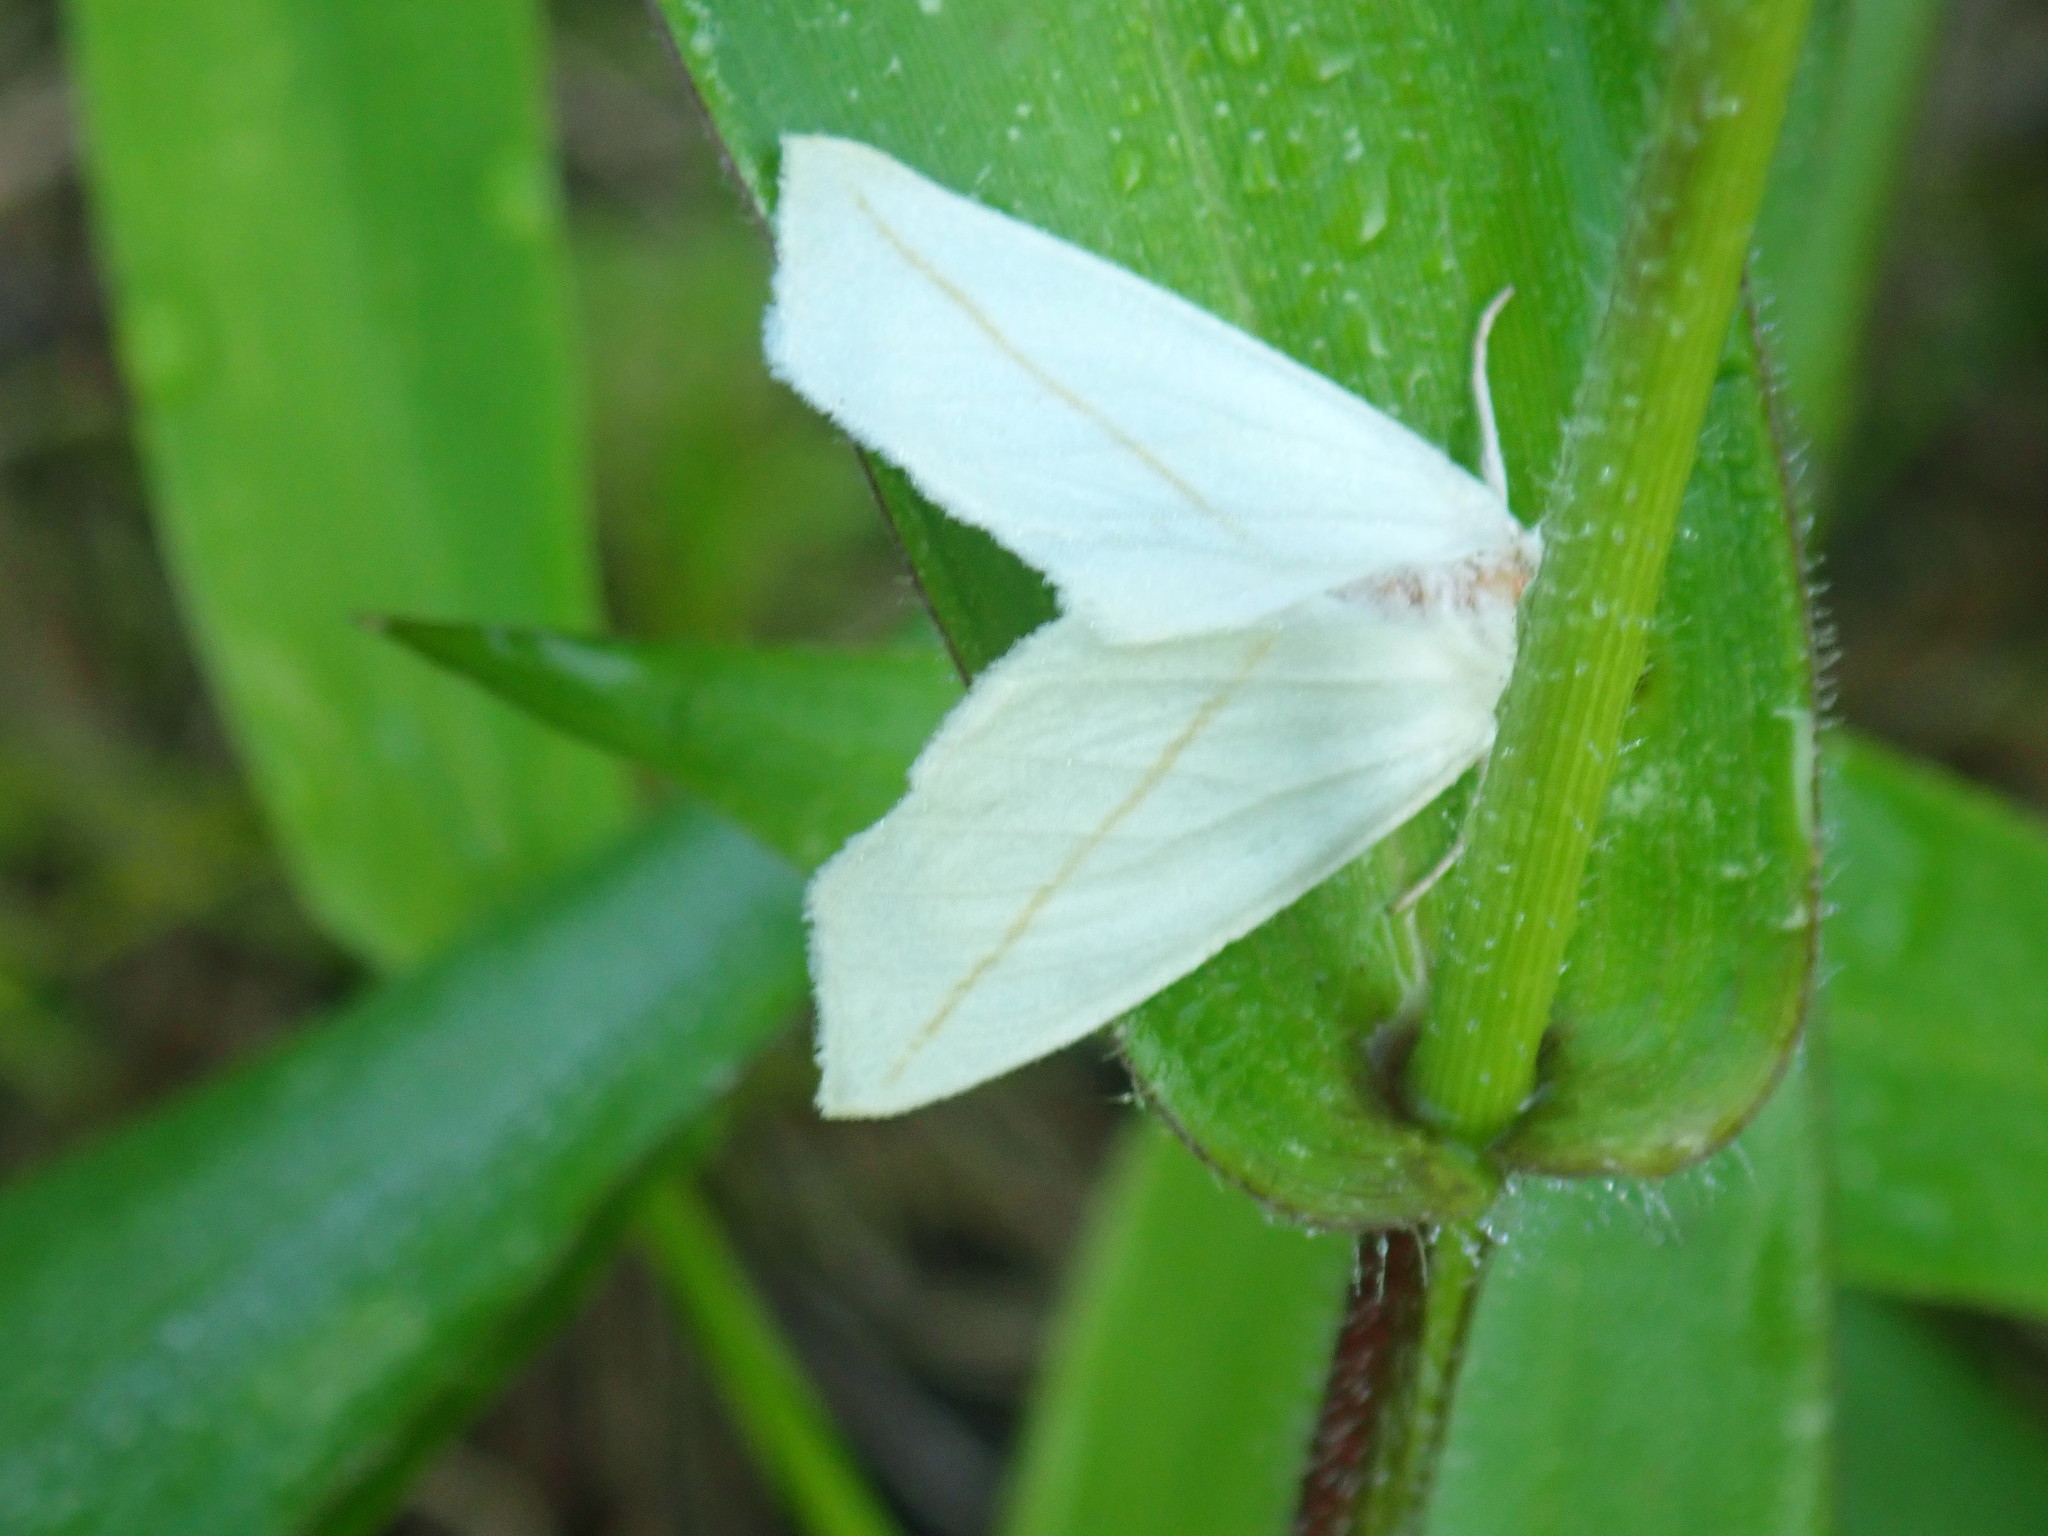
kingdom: Animalia
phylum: Arthropoda
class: Insecta
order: Lepidoptera
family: Geometridae
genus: Tetracis
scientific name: Tetracis cachexiata
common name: White slant-line
